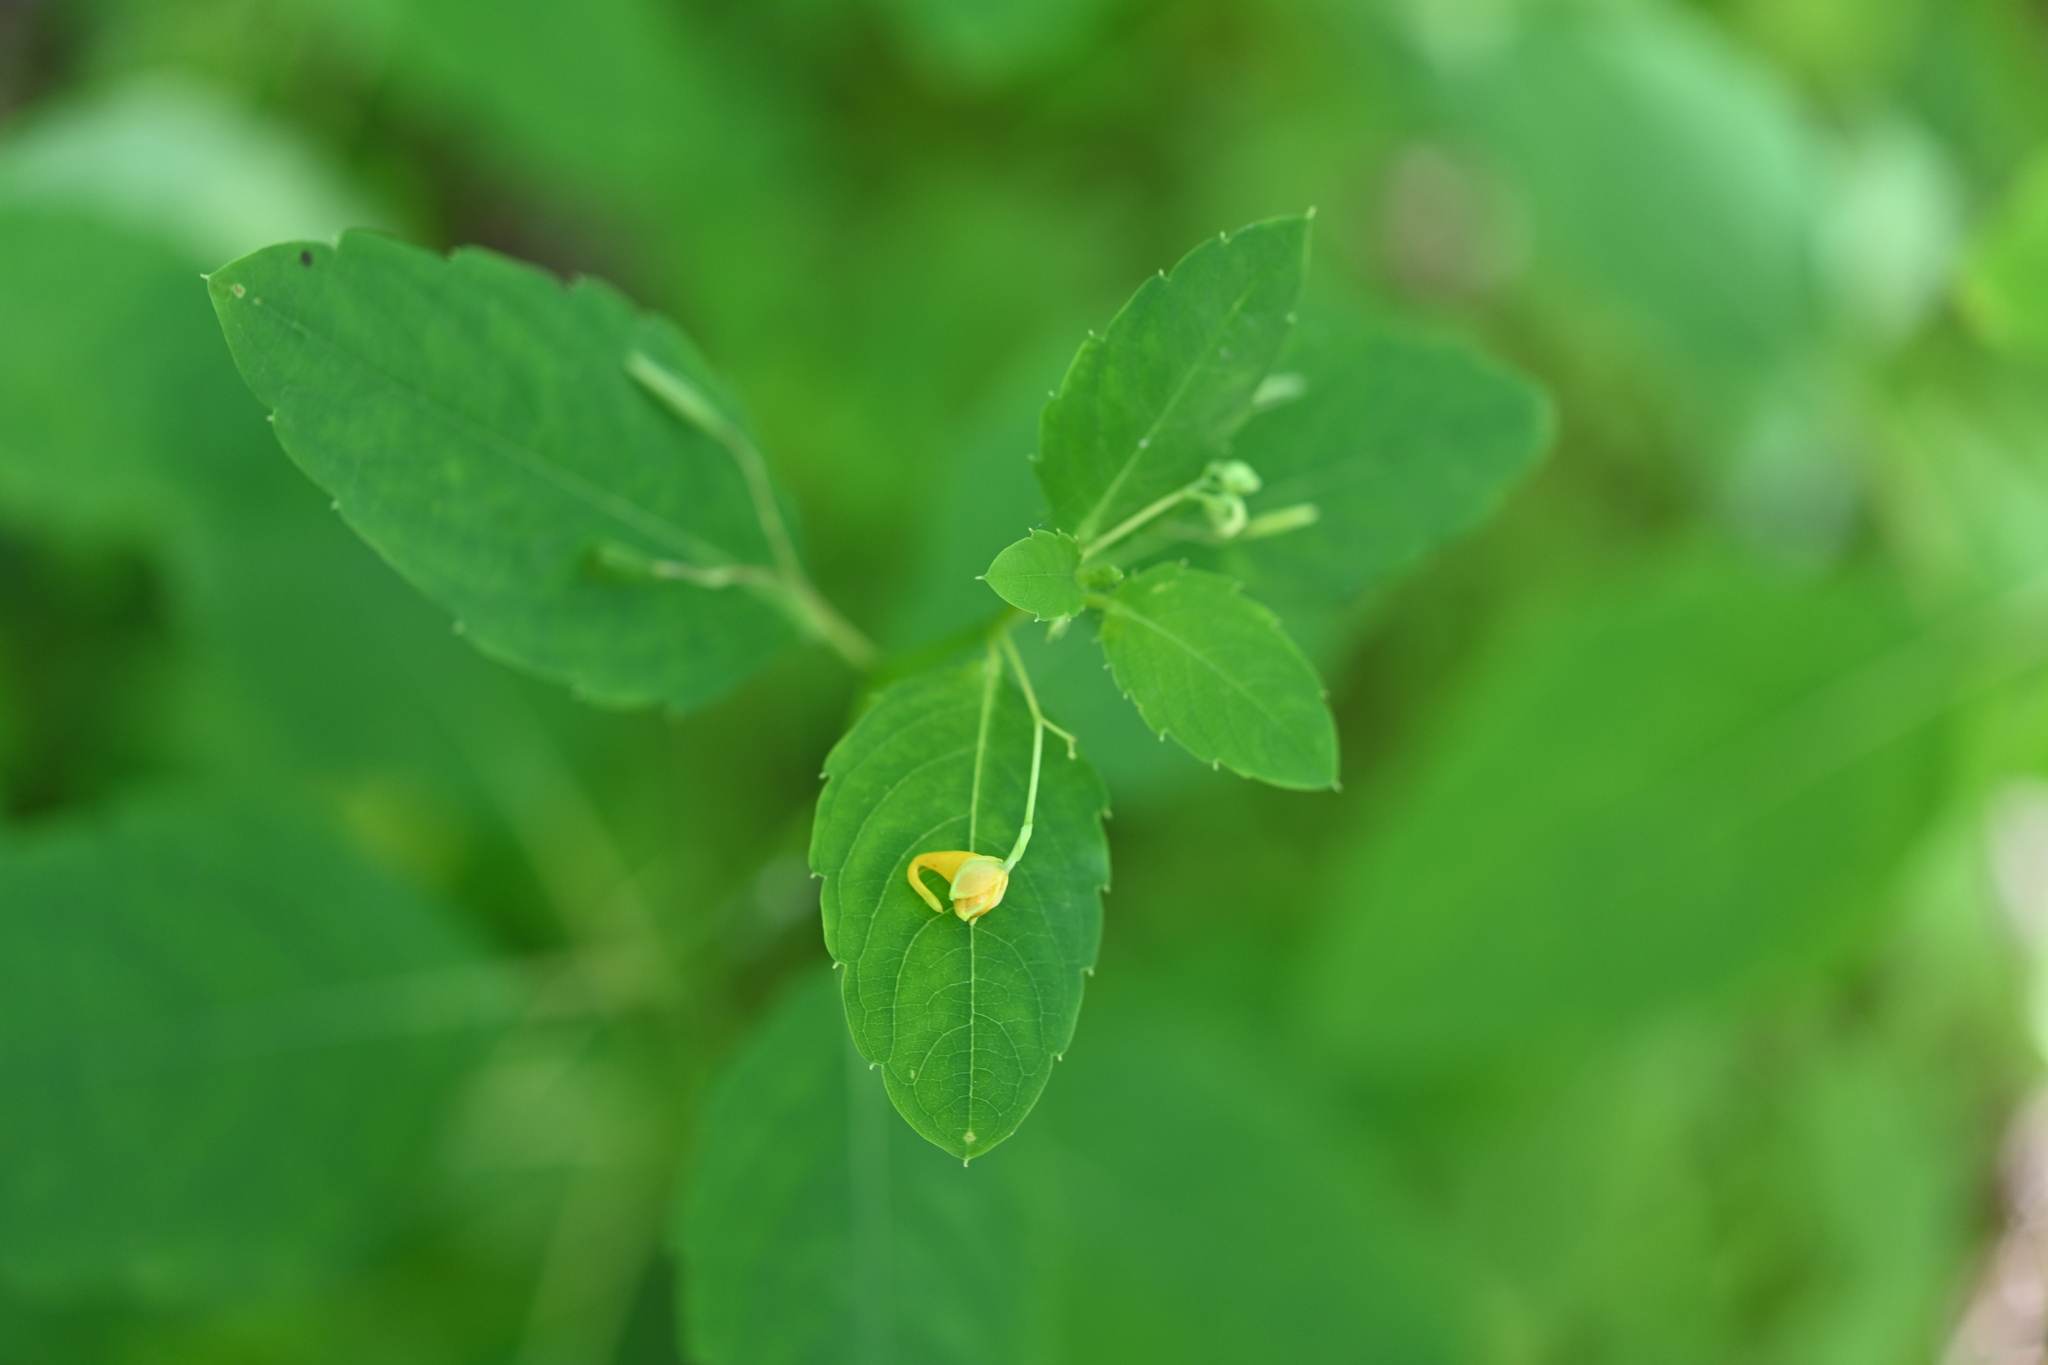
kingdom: Plantae
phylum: Tracheophyta
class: Magnoliopsida
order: Ericales
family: Balsaminaceae
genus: Impatiens
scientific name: Impatiens capensis
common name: Orange balsam
